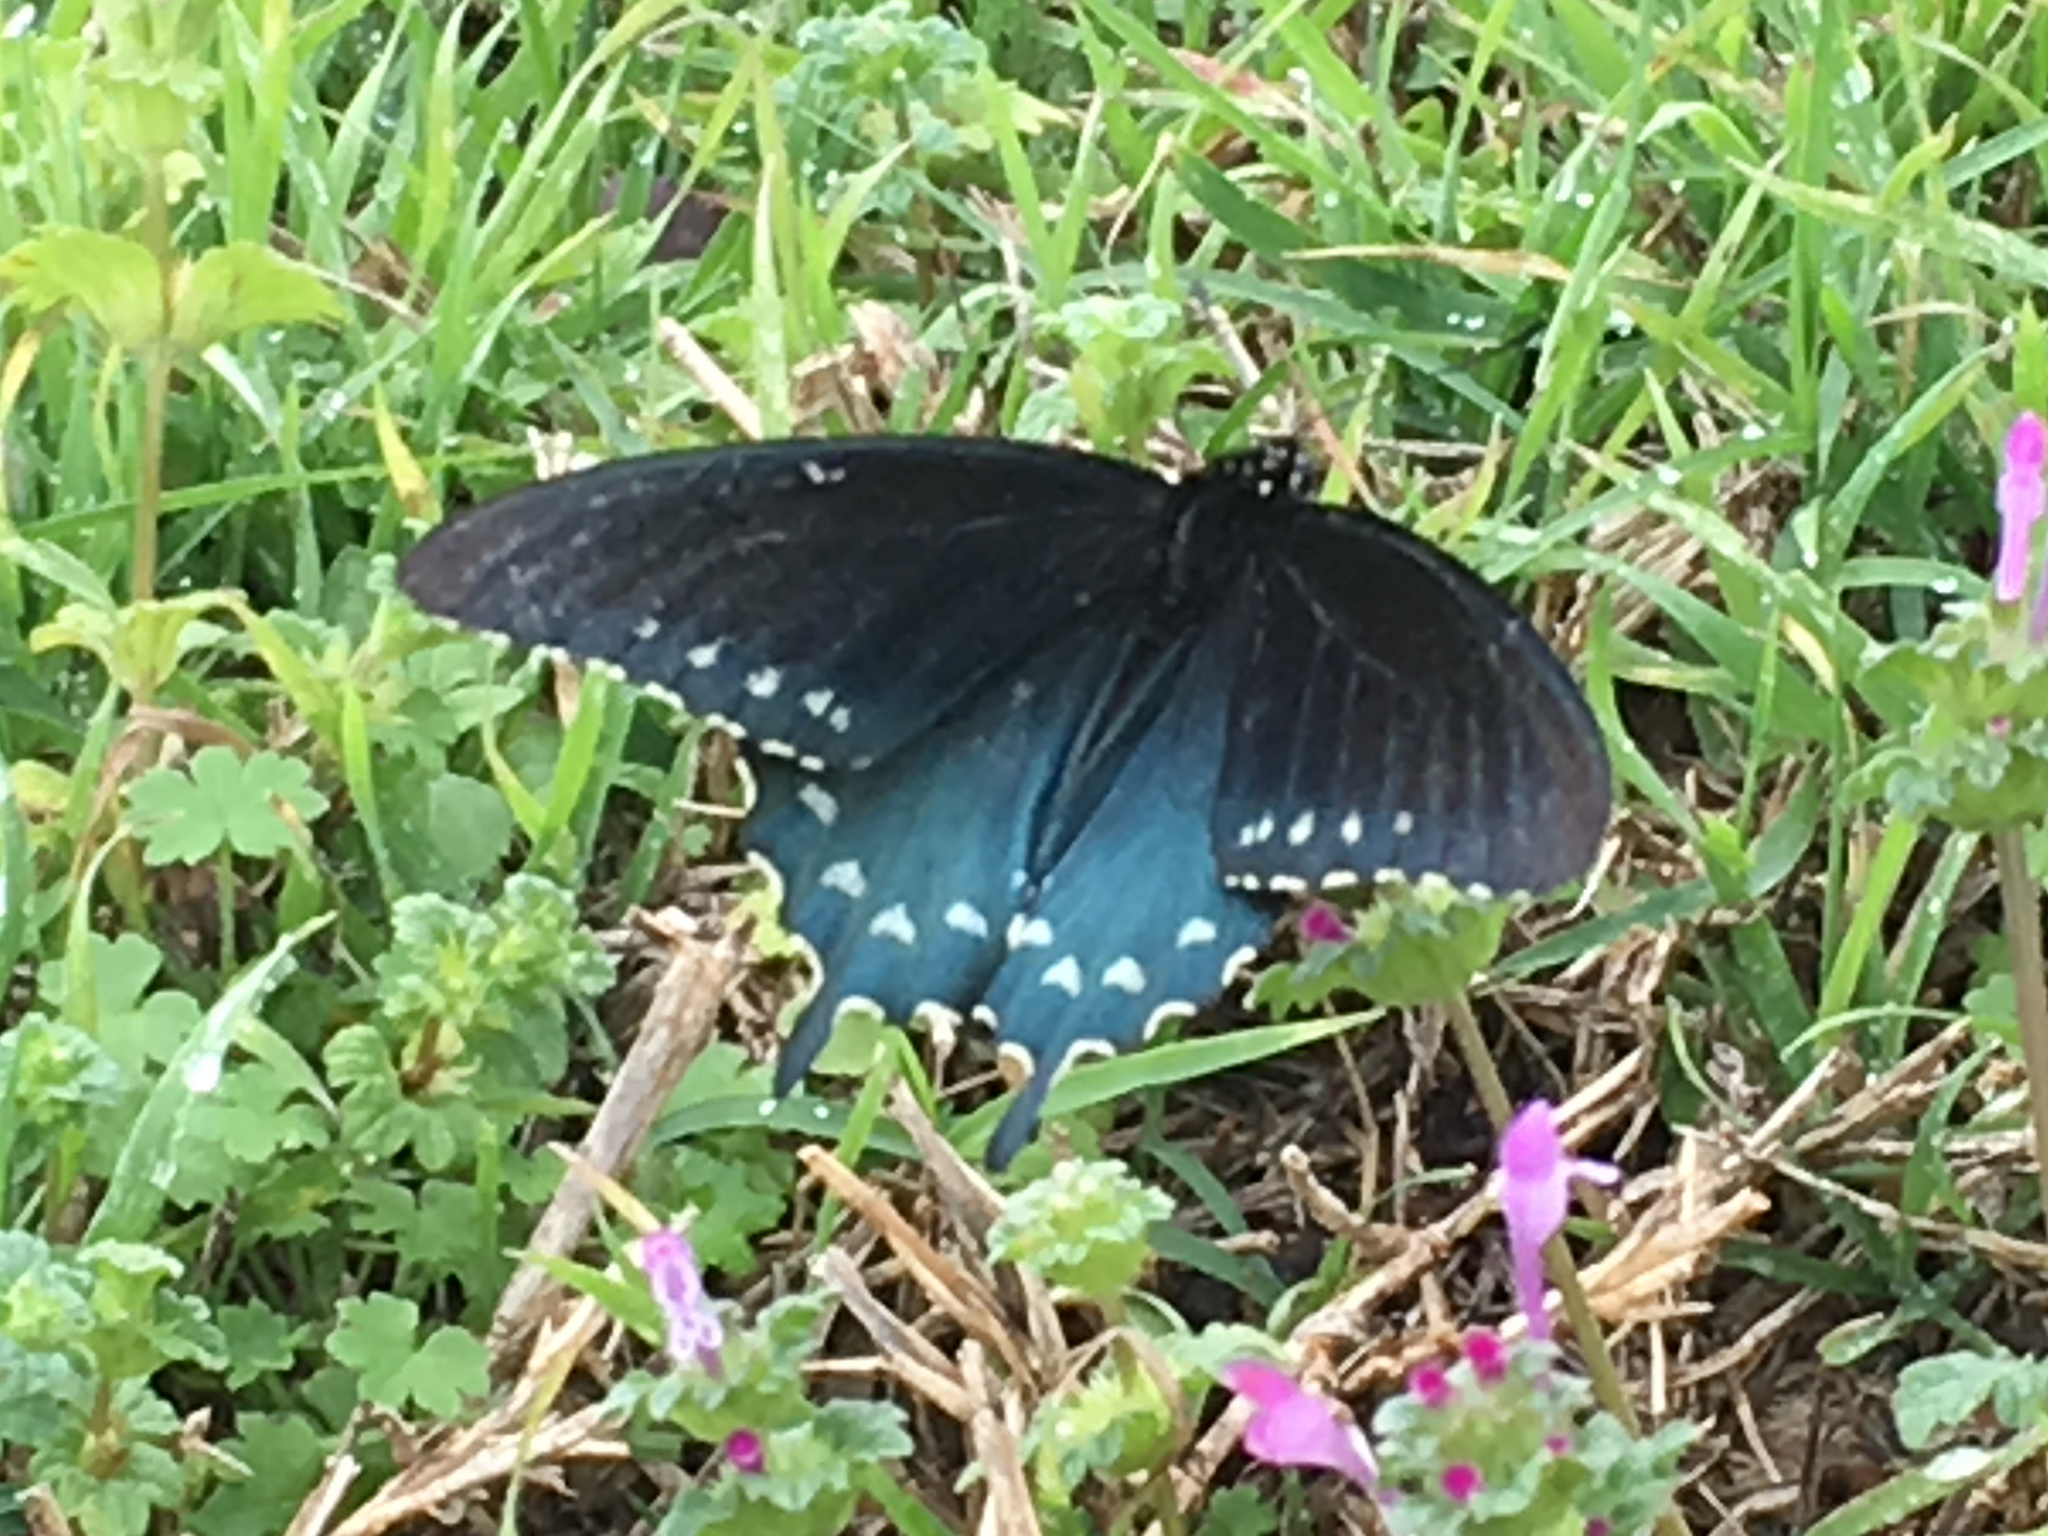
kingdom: Animalia
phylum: Arthropoda
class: Insecta
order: Lepidoptera
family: Papilionidae
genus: Battus
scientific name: Battus philenor
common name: Pipevine swallowtail
